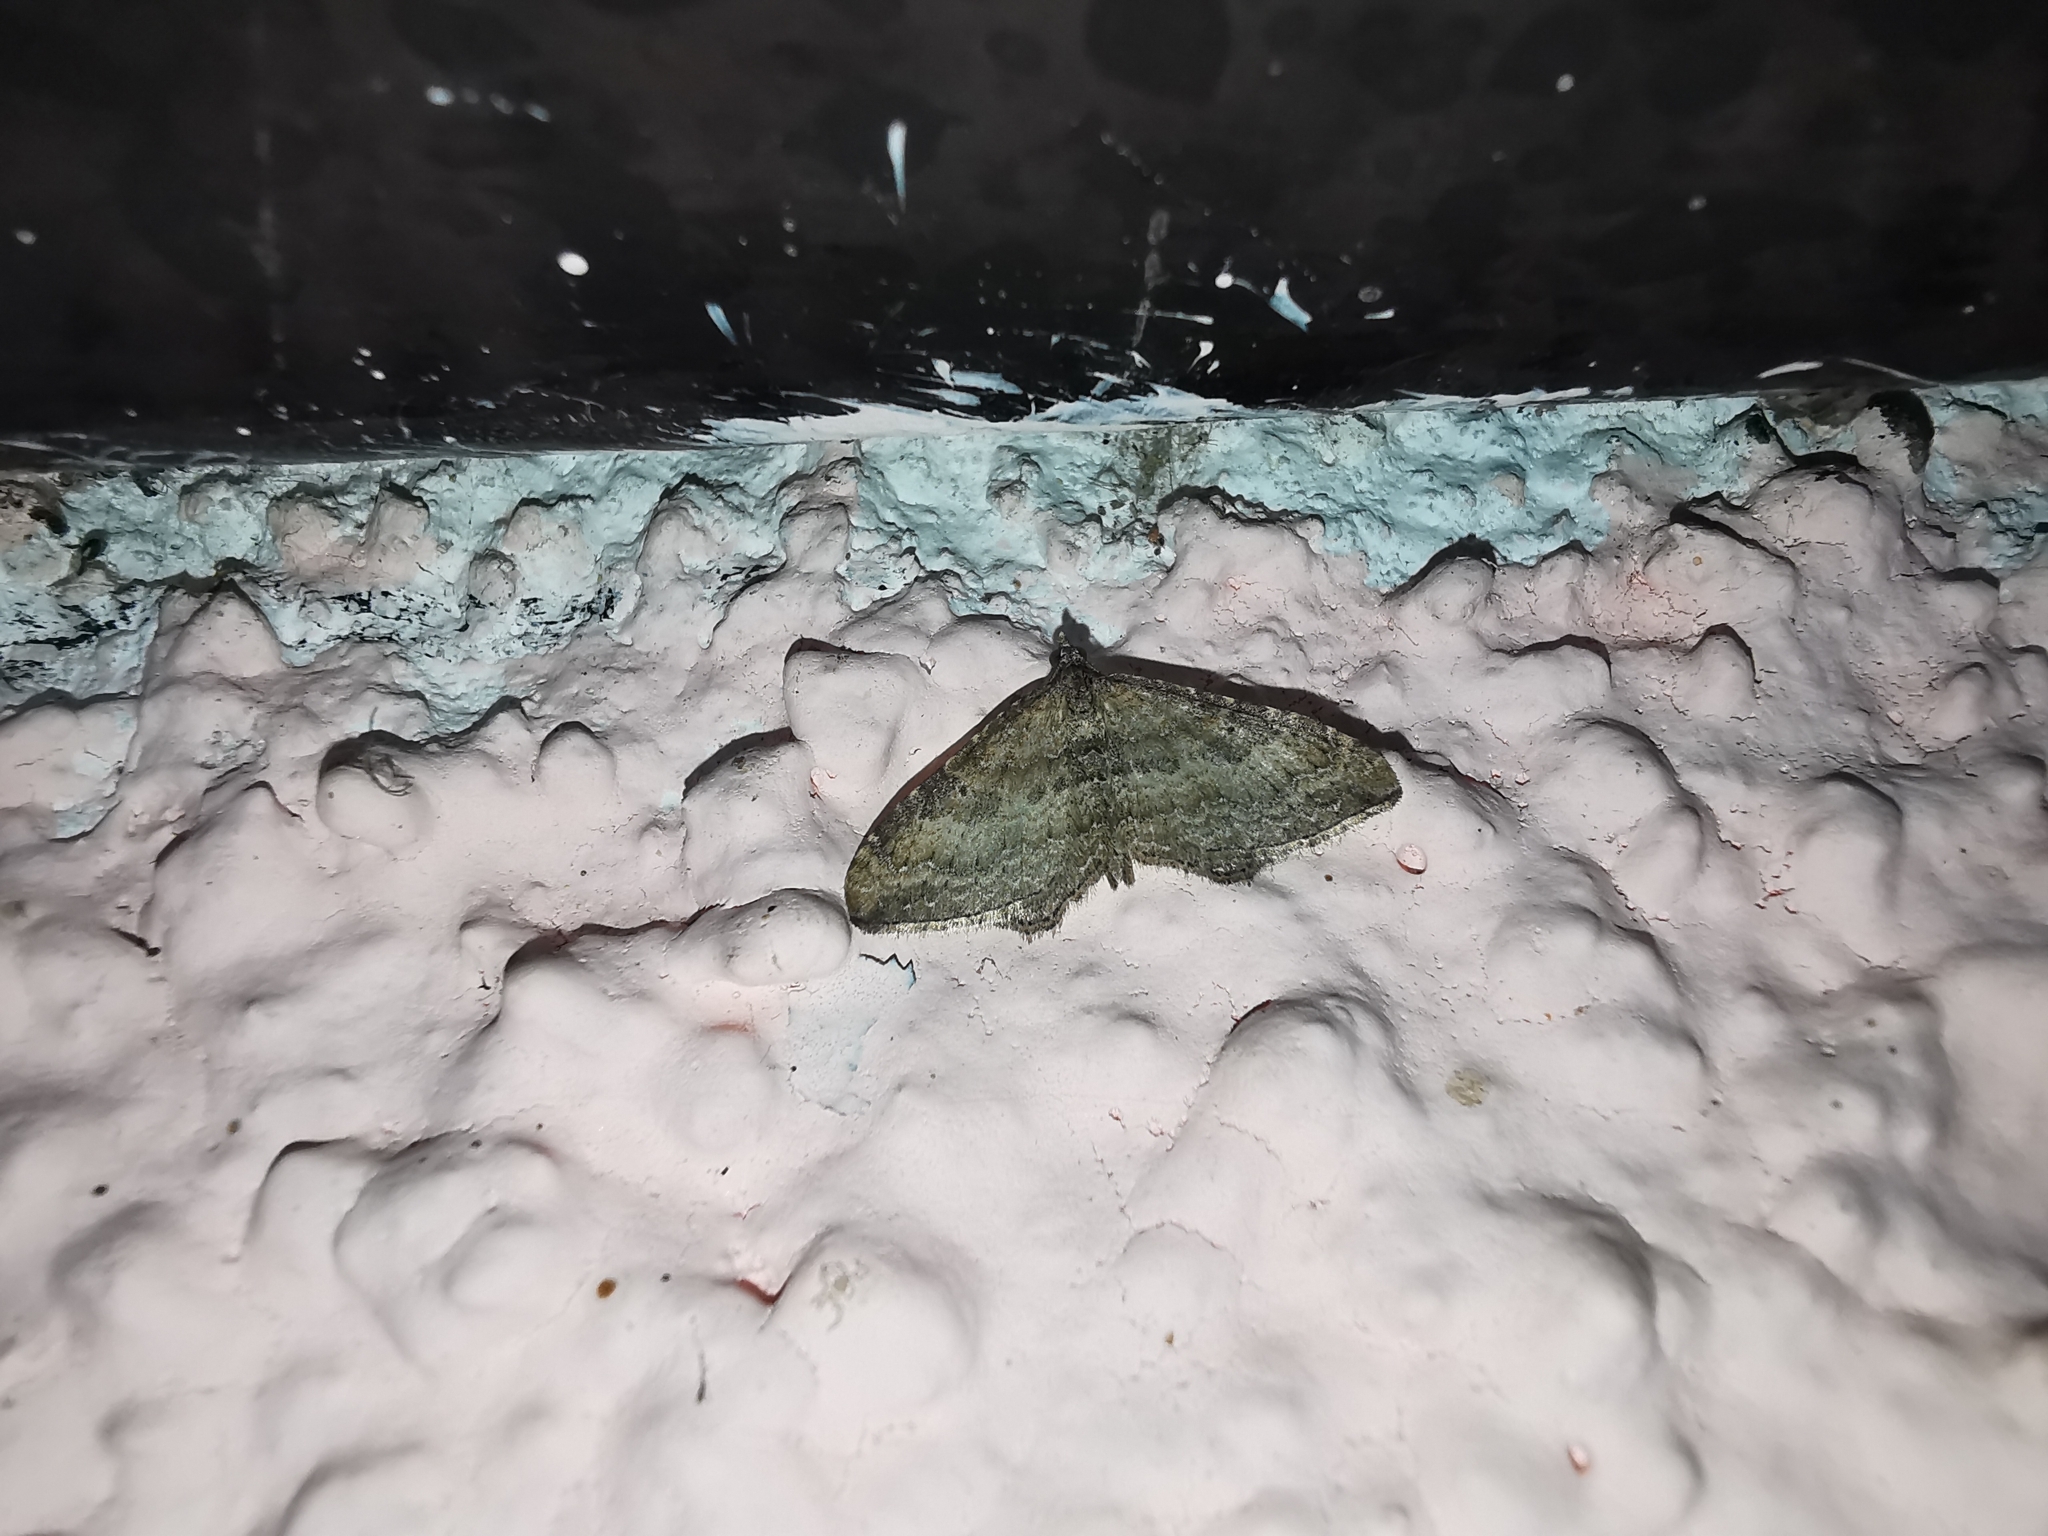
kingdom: Animalia
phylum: Arthropoda
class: Insecta
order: Lepidoptera
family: Geometridae
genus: Orthonama
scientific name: Orthonama obstipata
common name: The gem
